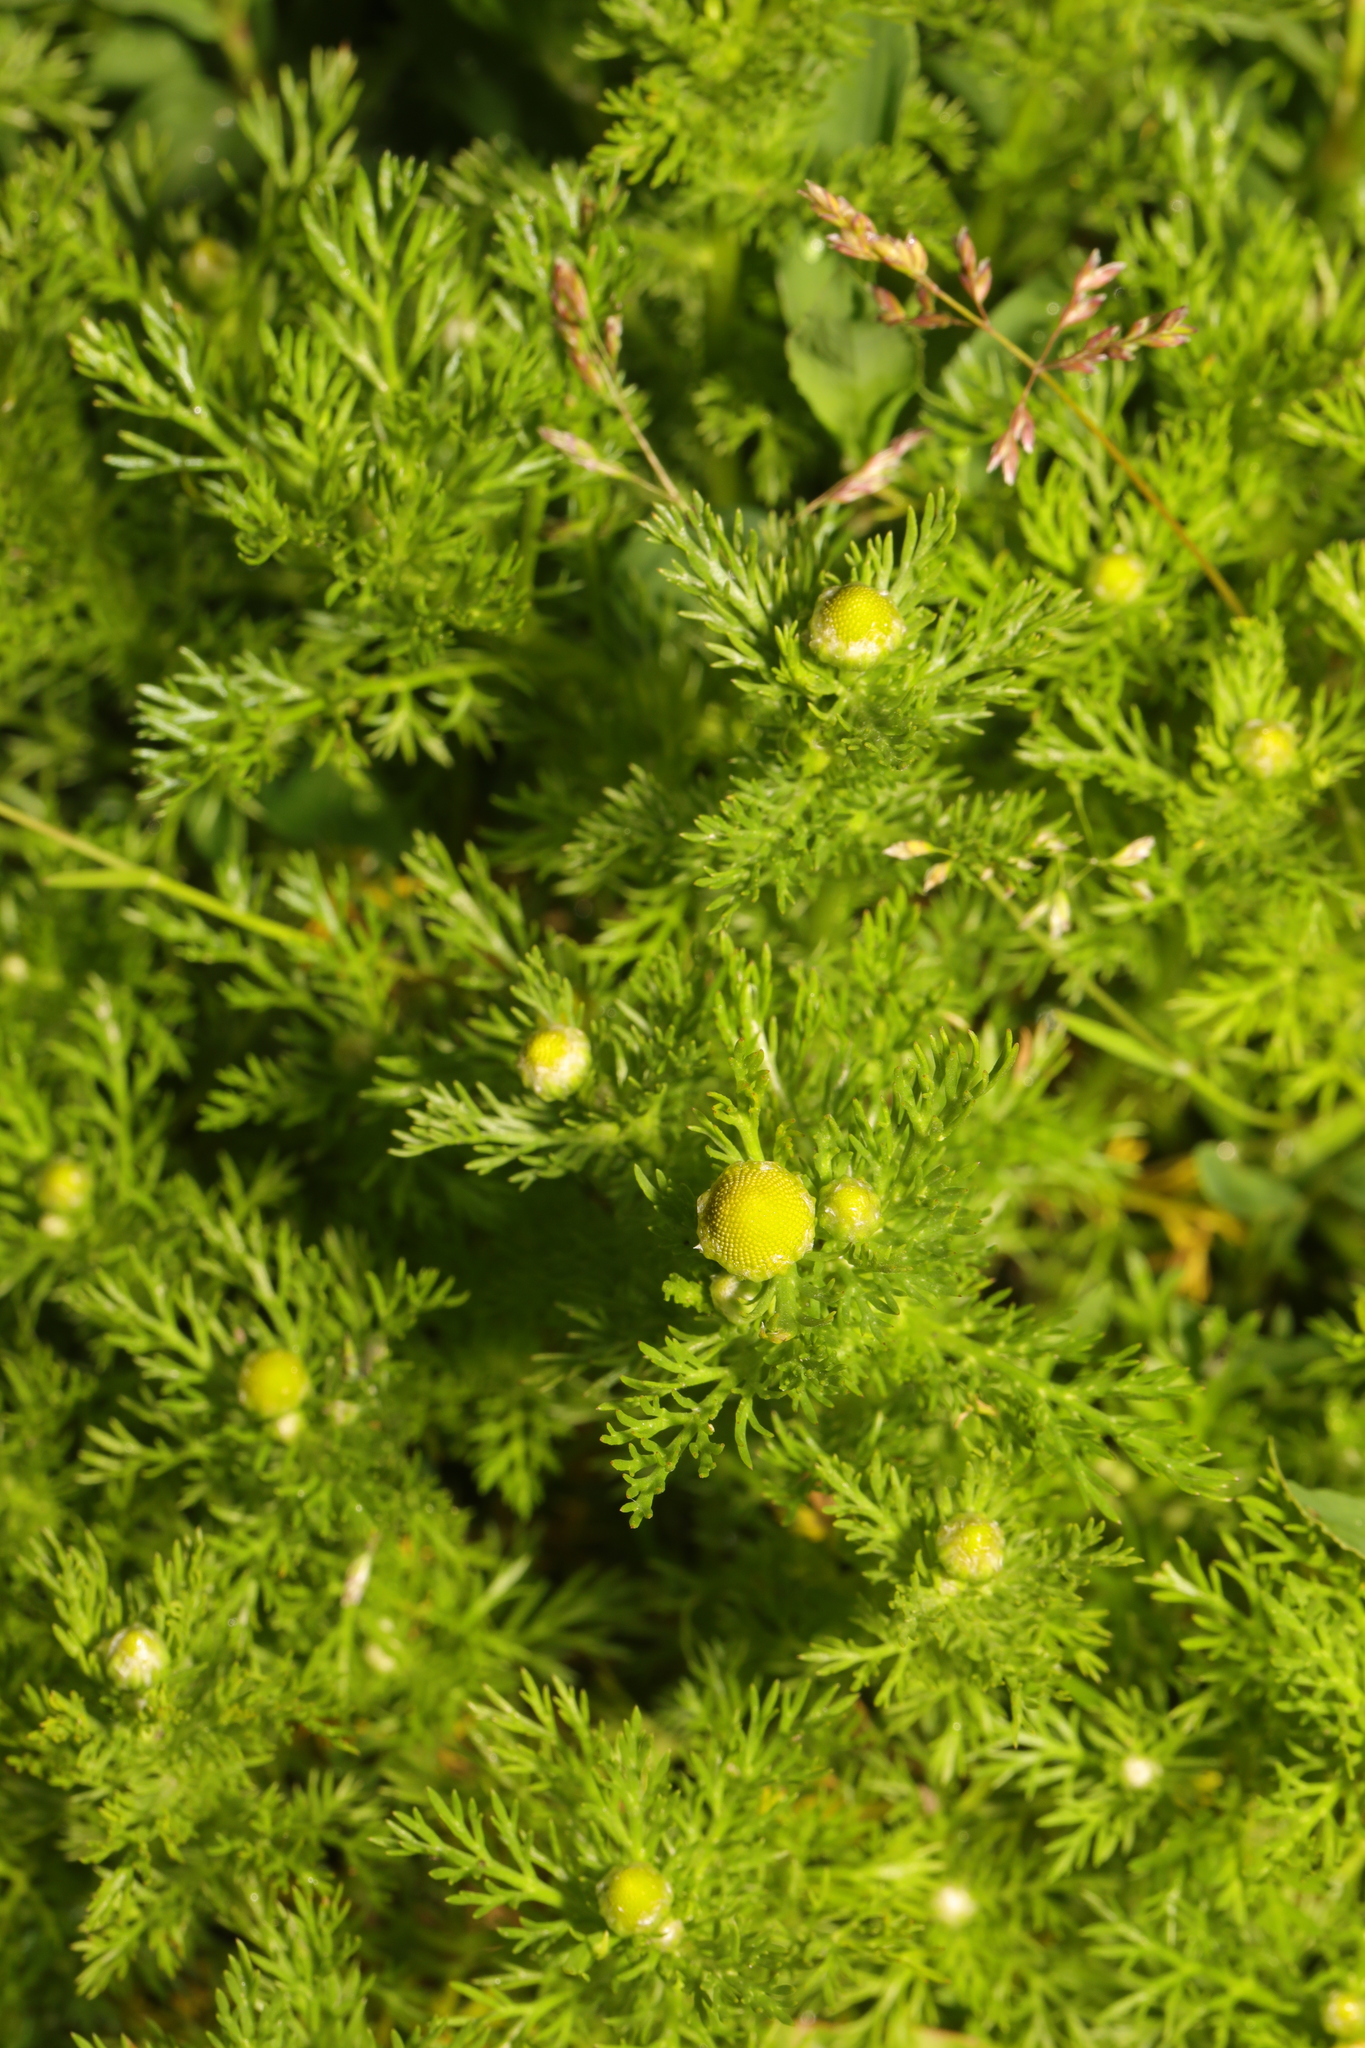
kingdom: Plantae
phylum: Tracheophyta
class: Magnoliopsida
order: Asterales
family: Asteraceae
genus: Matricaria
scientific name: Matricaria discoidea
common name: Disc mayweed
